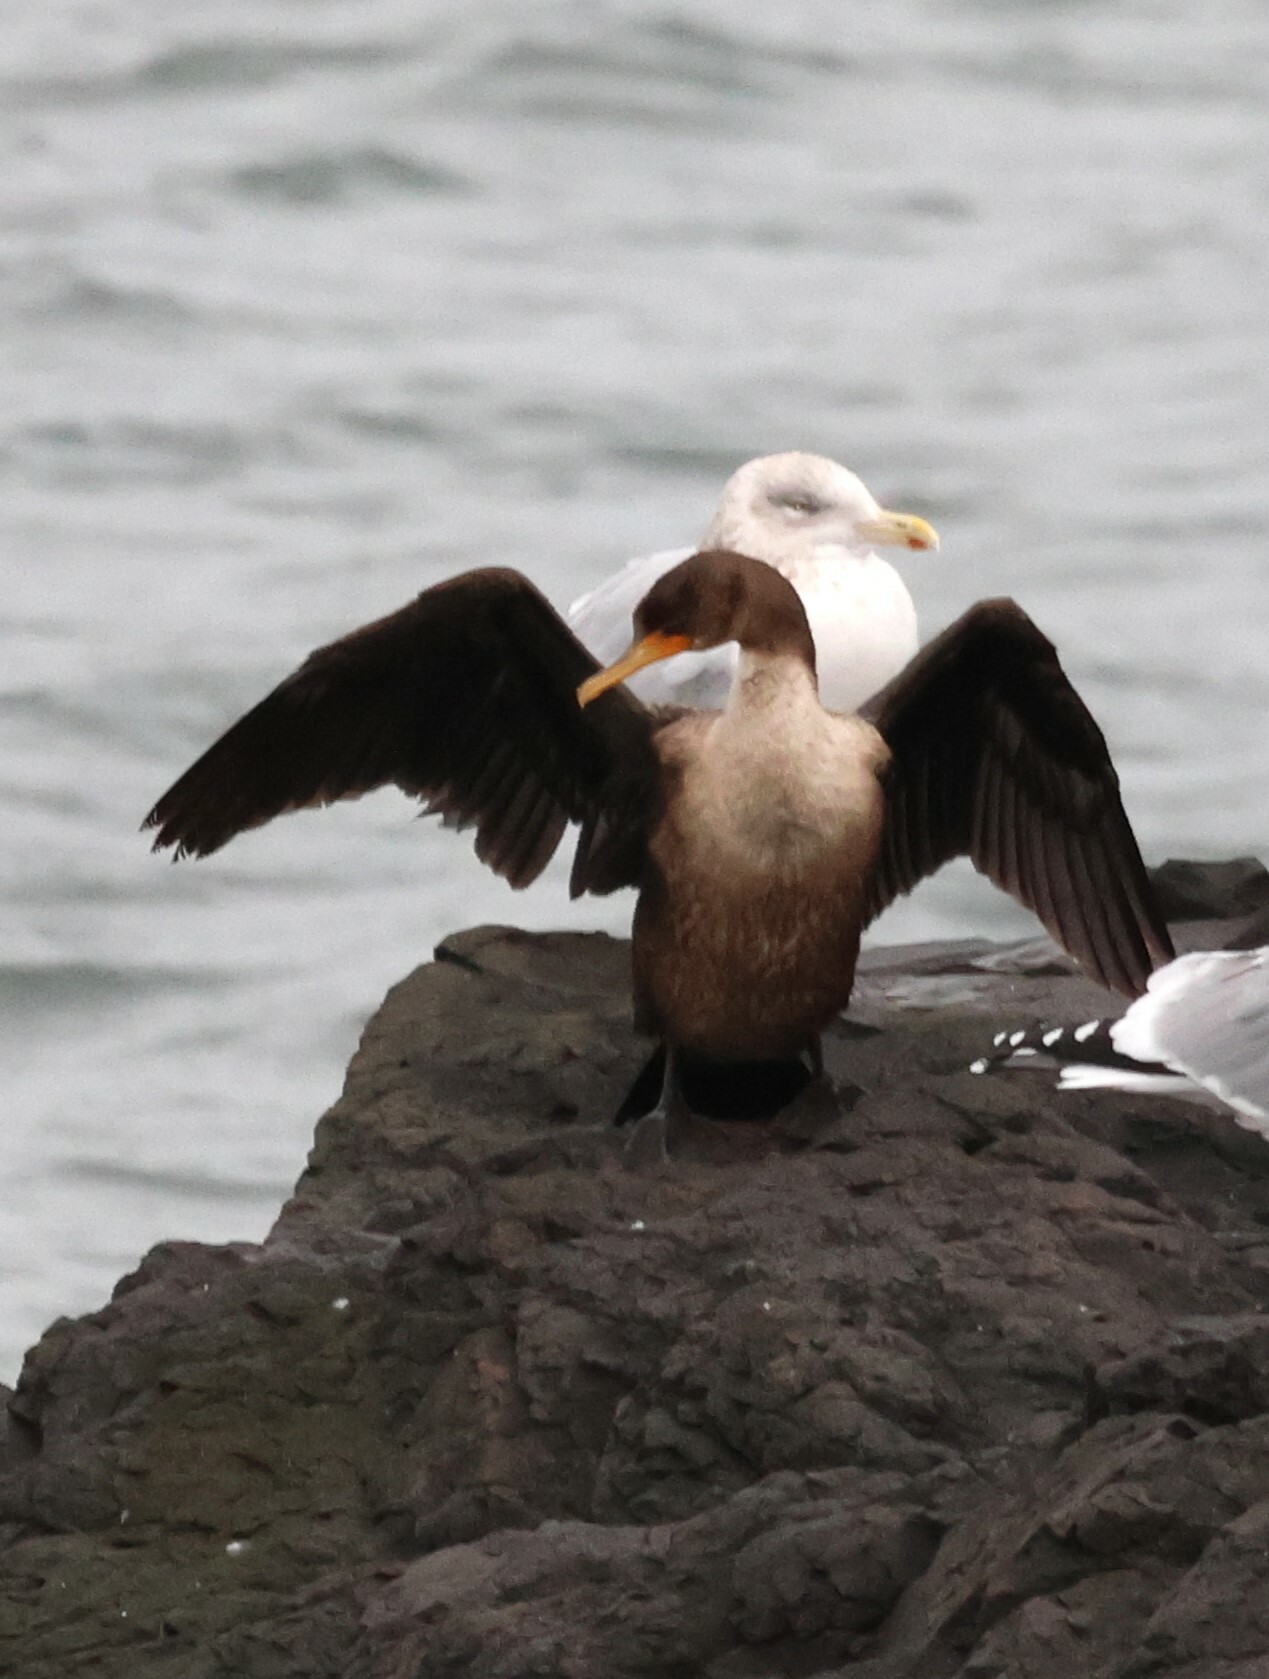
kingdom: Animalia
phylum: Chordata
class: Aves
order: Suliformes
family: Phalacrocoracidae
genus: Phalacrocorax
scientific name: Phalacrocorax auritus
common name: Double-crested cormorant
